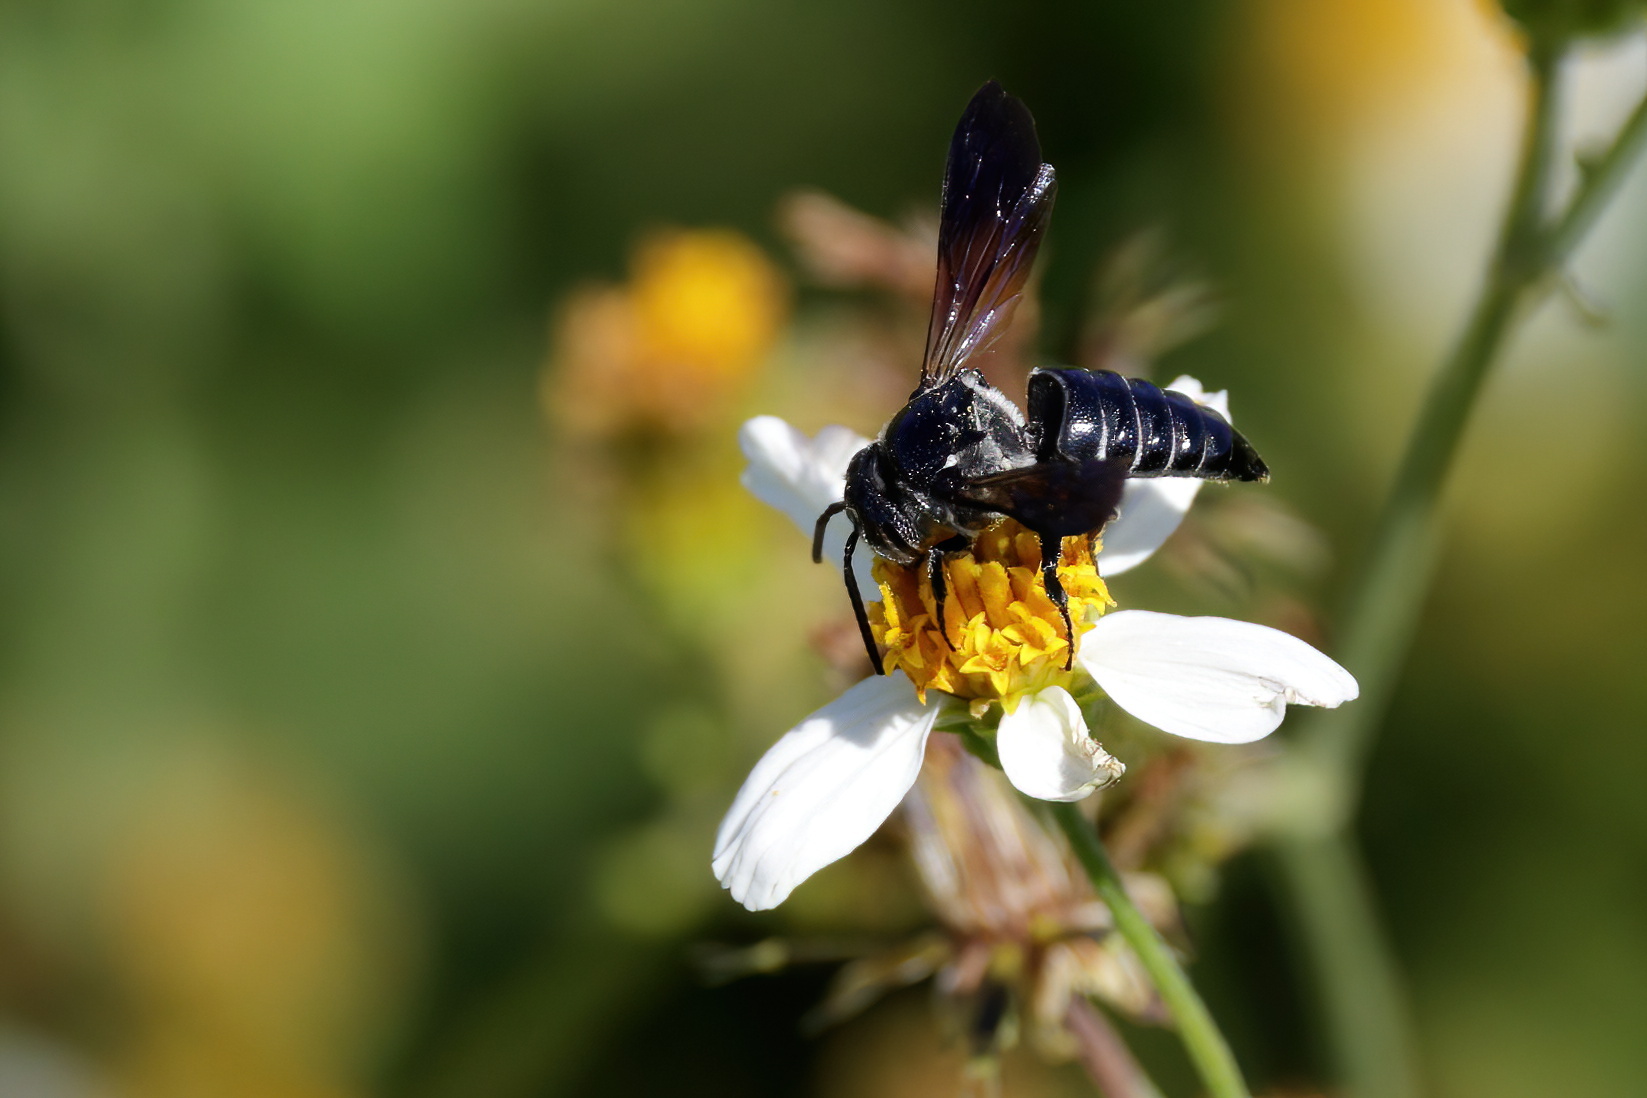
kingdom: Animalia
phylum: Arthropoda
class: Insecta
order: Hymenoptera
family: Megachilidae
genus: Coelioxys
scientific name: Coelioxys dolichos
